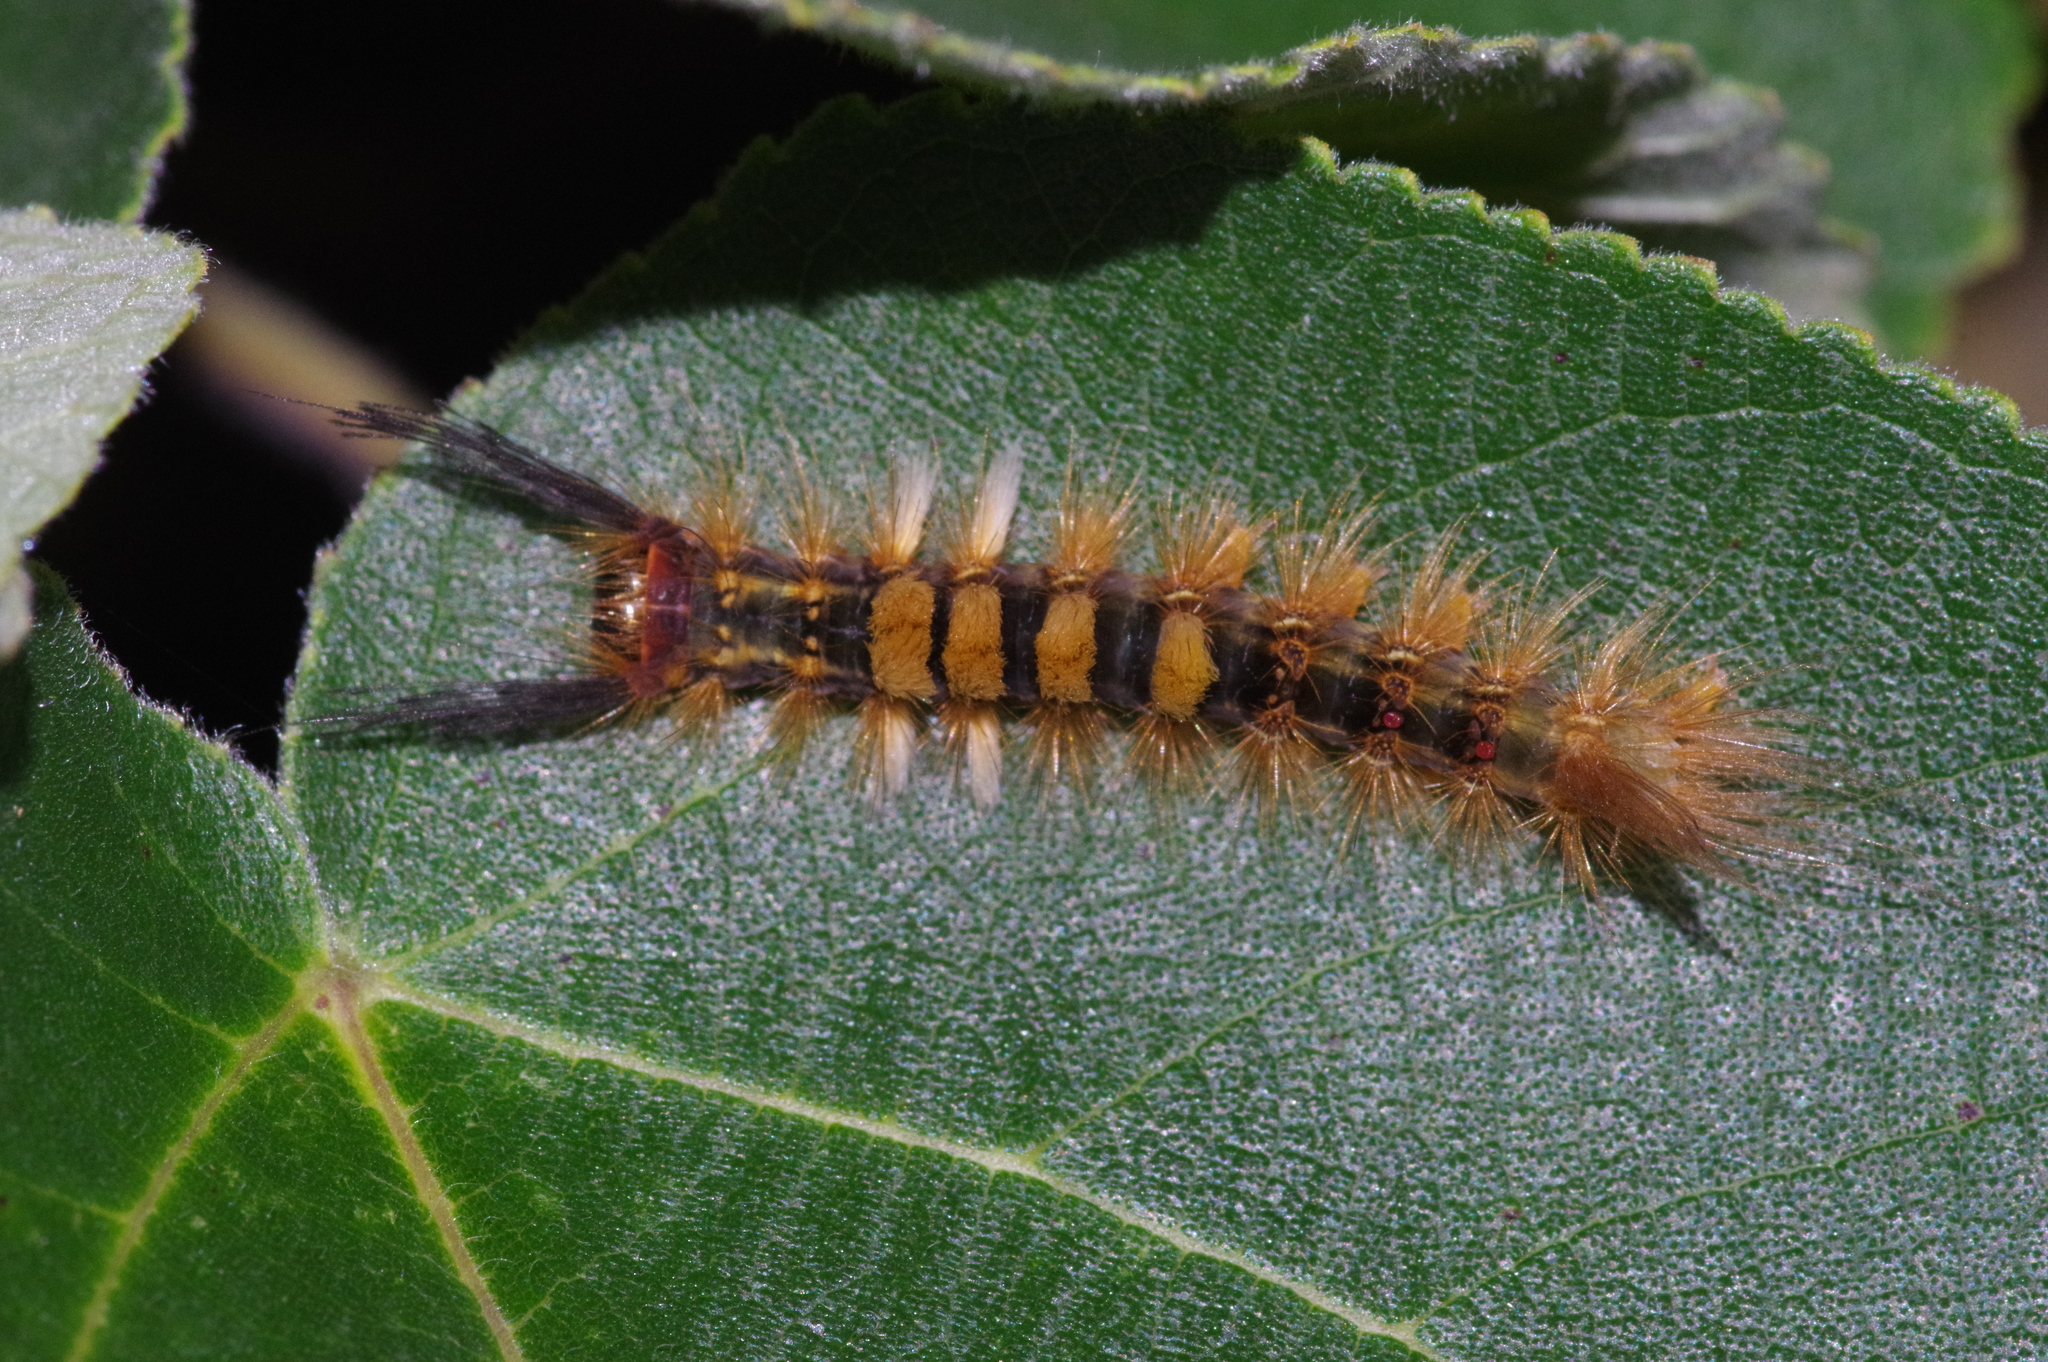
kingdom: Animalia
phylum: Arthropoda
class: Insecta
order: Lepidoptera
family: Erebidae
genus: Orgyia
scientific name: Orgyia postica
